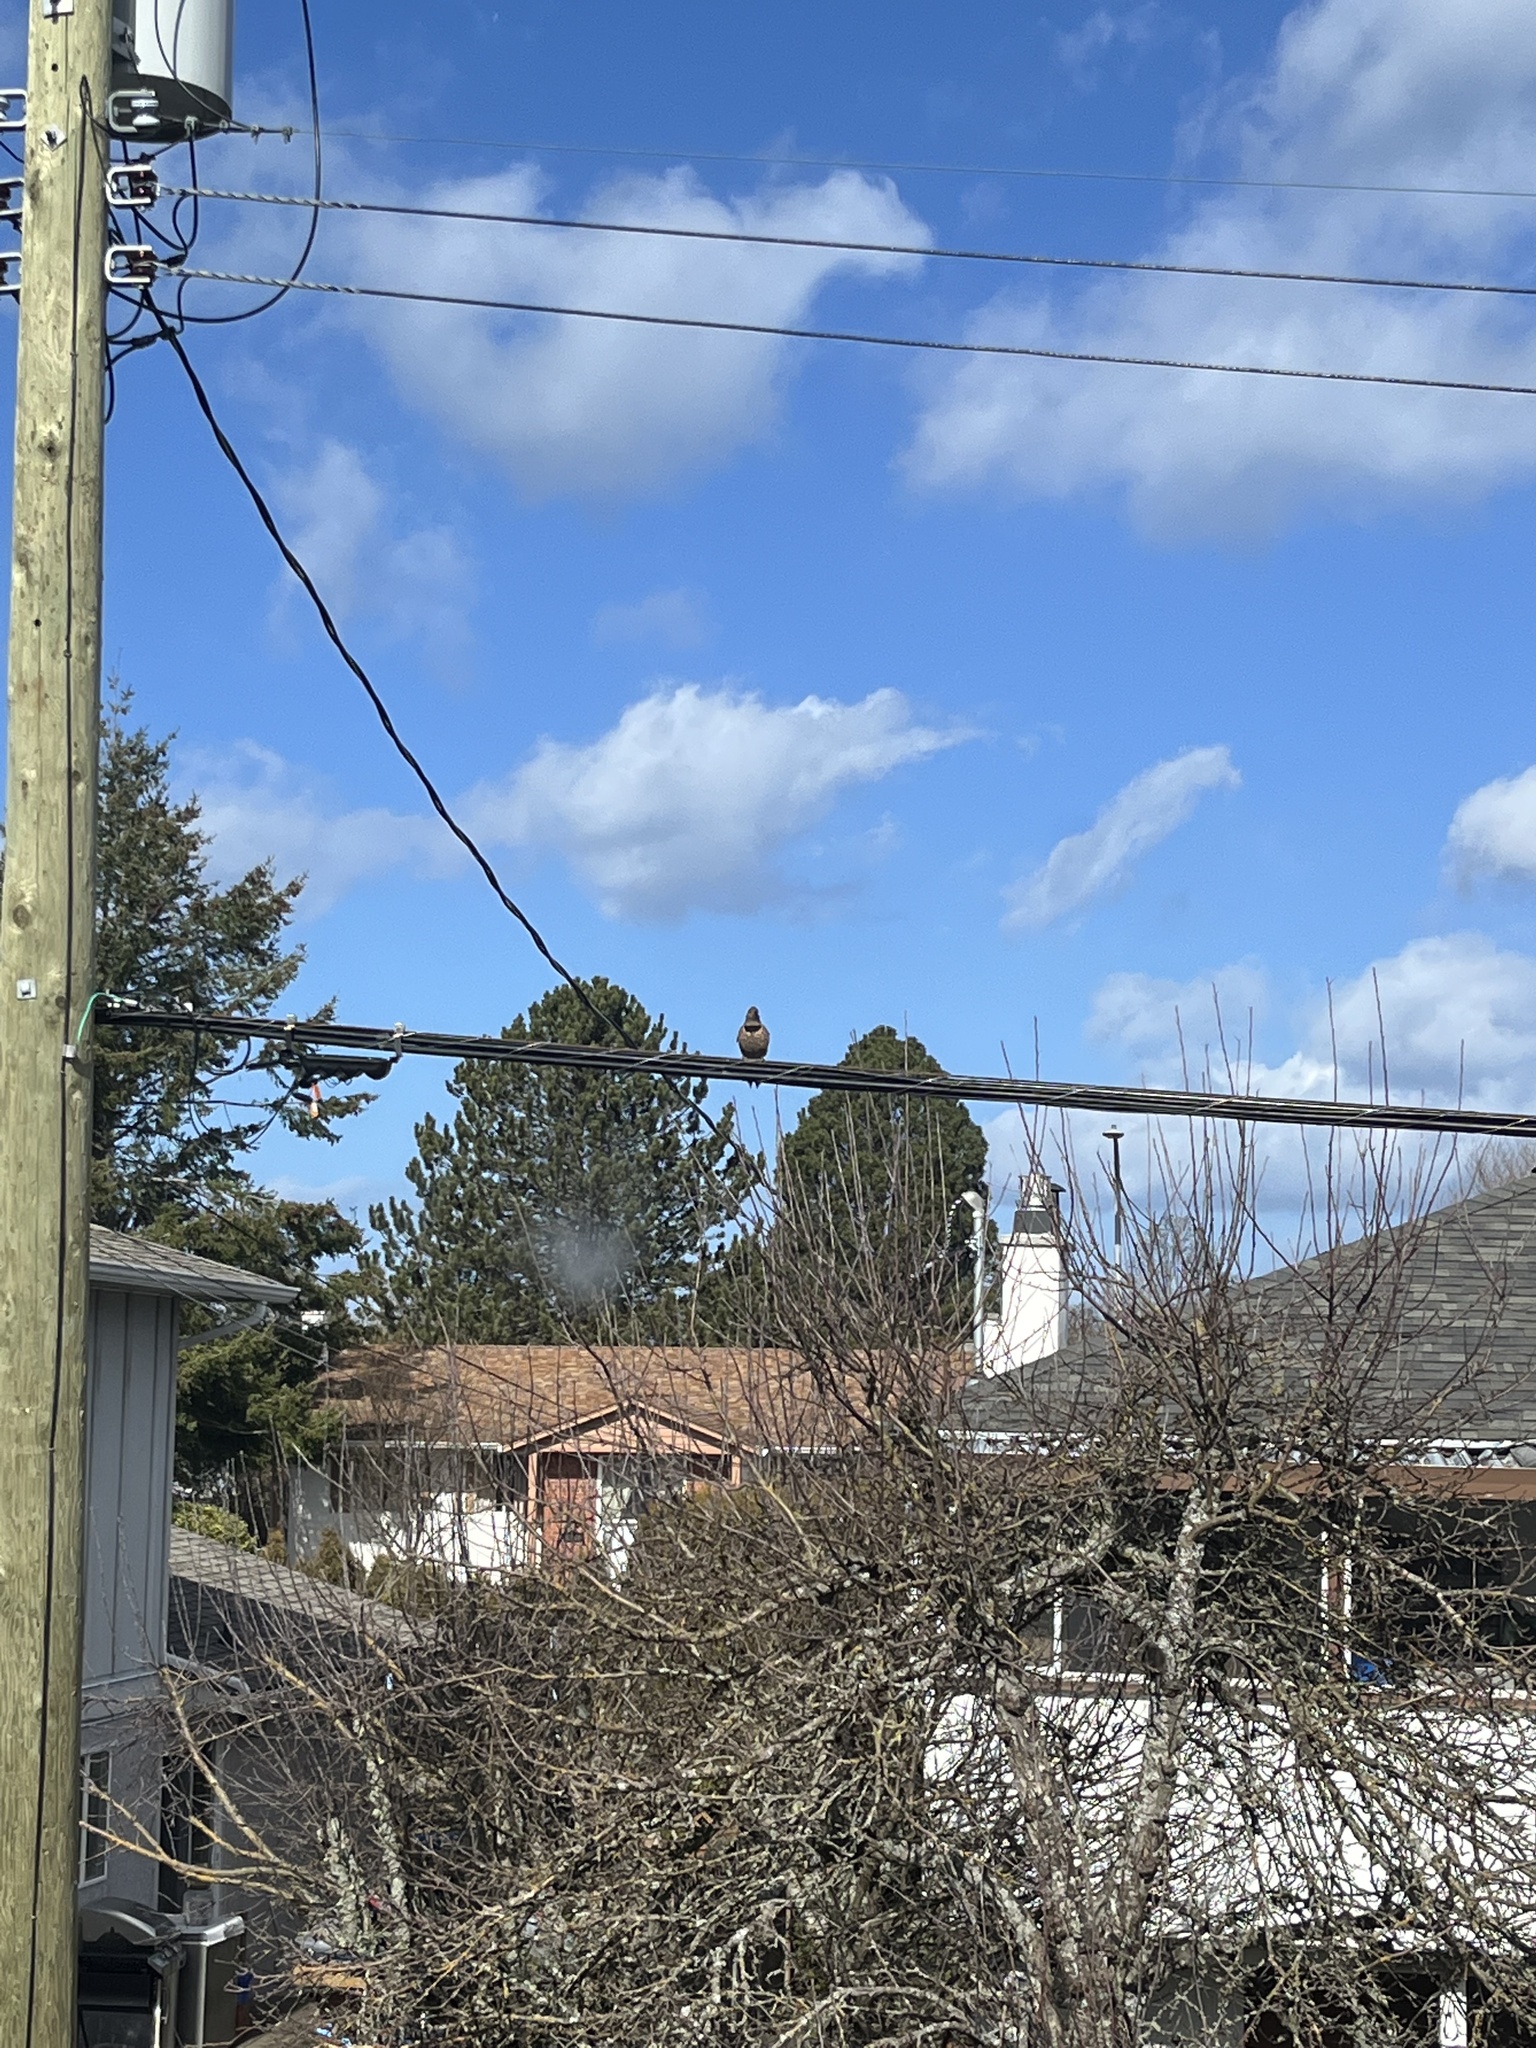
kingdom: Animalia
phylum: Chordata
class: Aves
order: Piciformes
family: Picidae
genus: Colaptes
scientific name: Colaptes auratus
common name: Northern flicker
